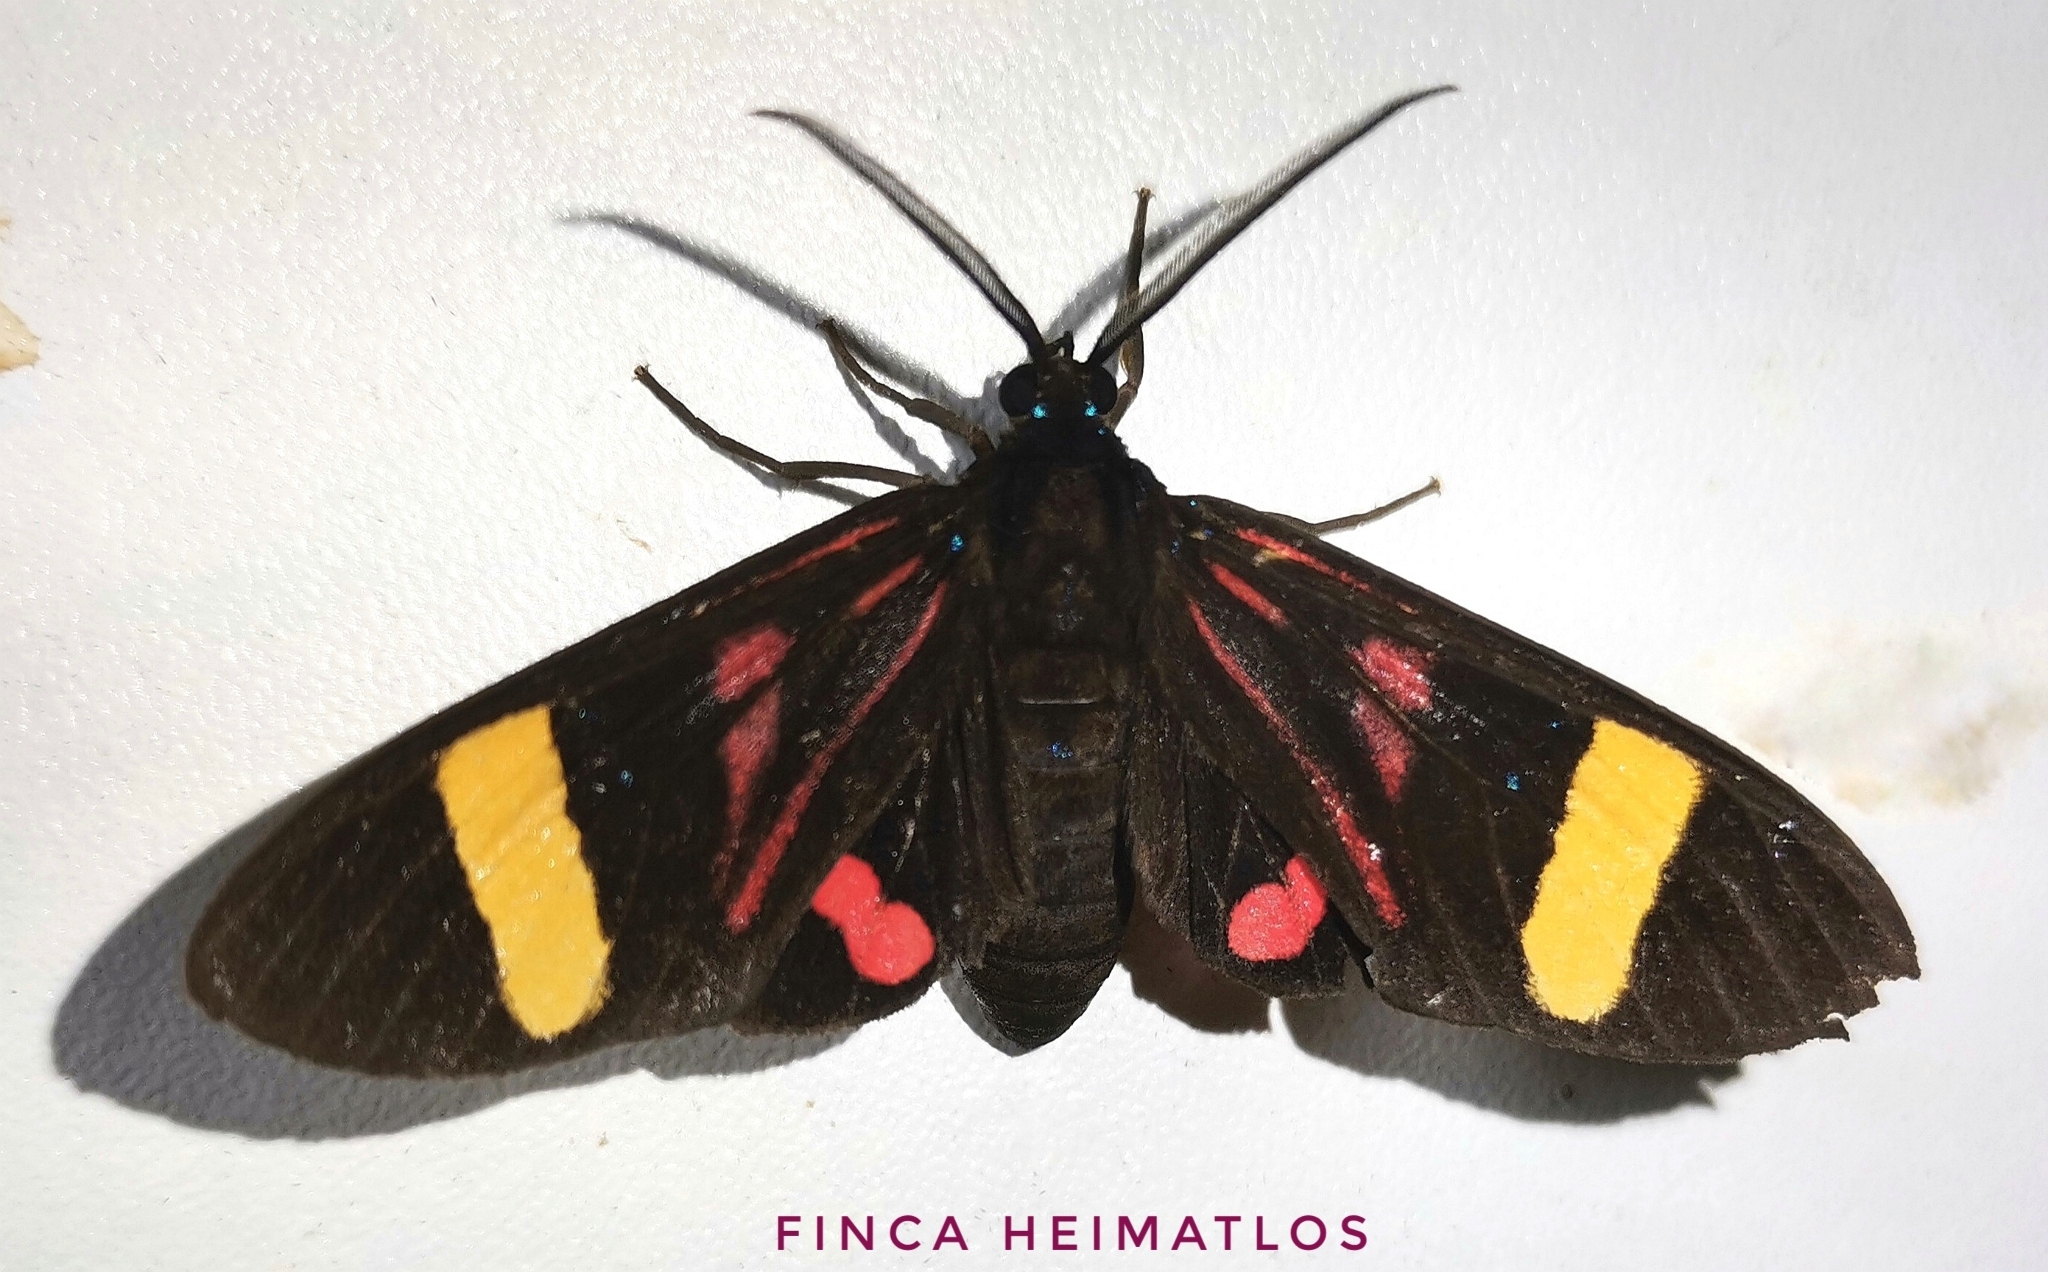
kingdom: Animalia
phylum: Arthropoda
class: Insecta
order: Lepidoptera
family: Erebidae
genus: Histioea
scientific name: Histioea proserpina
